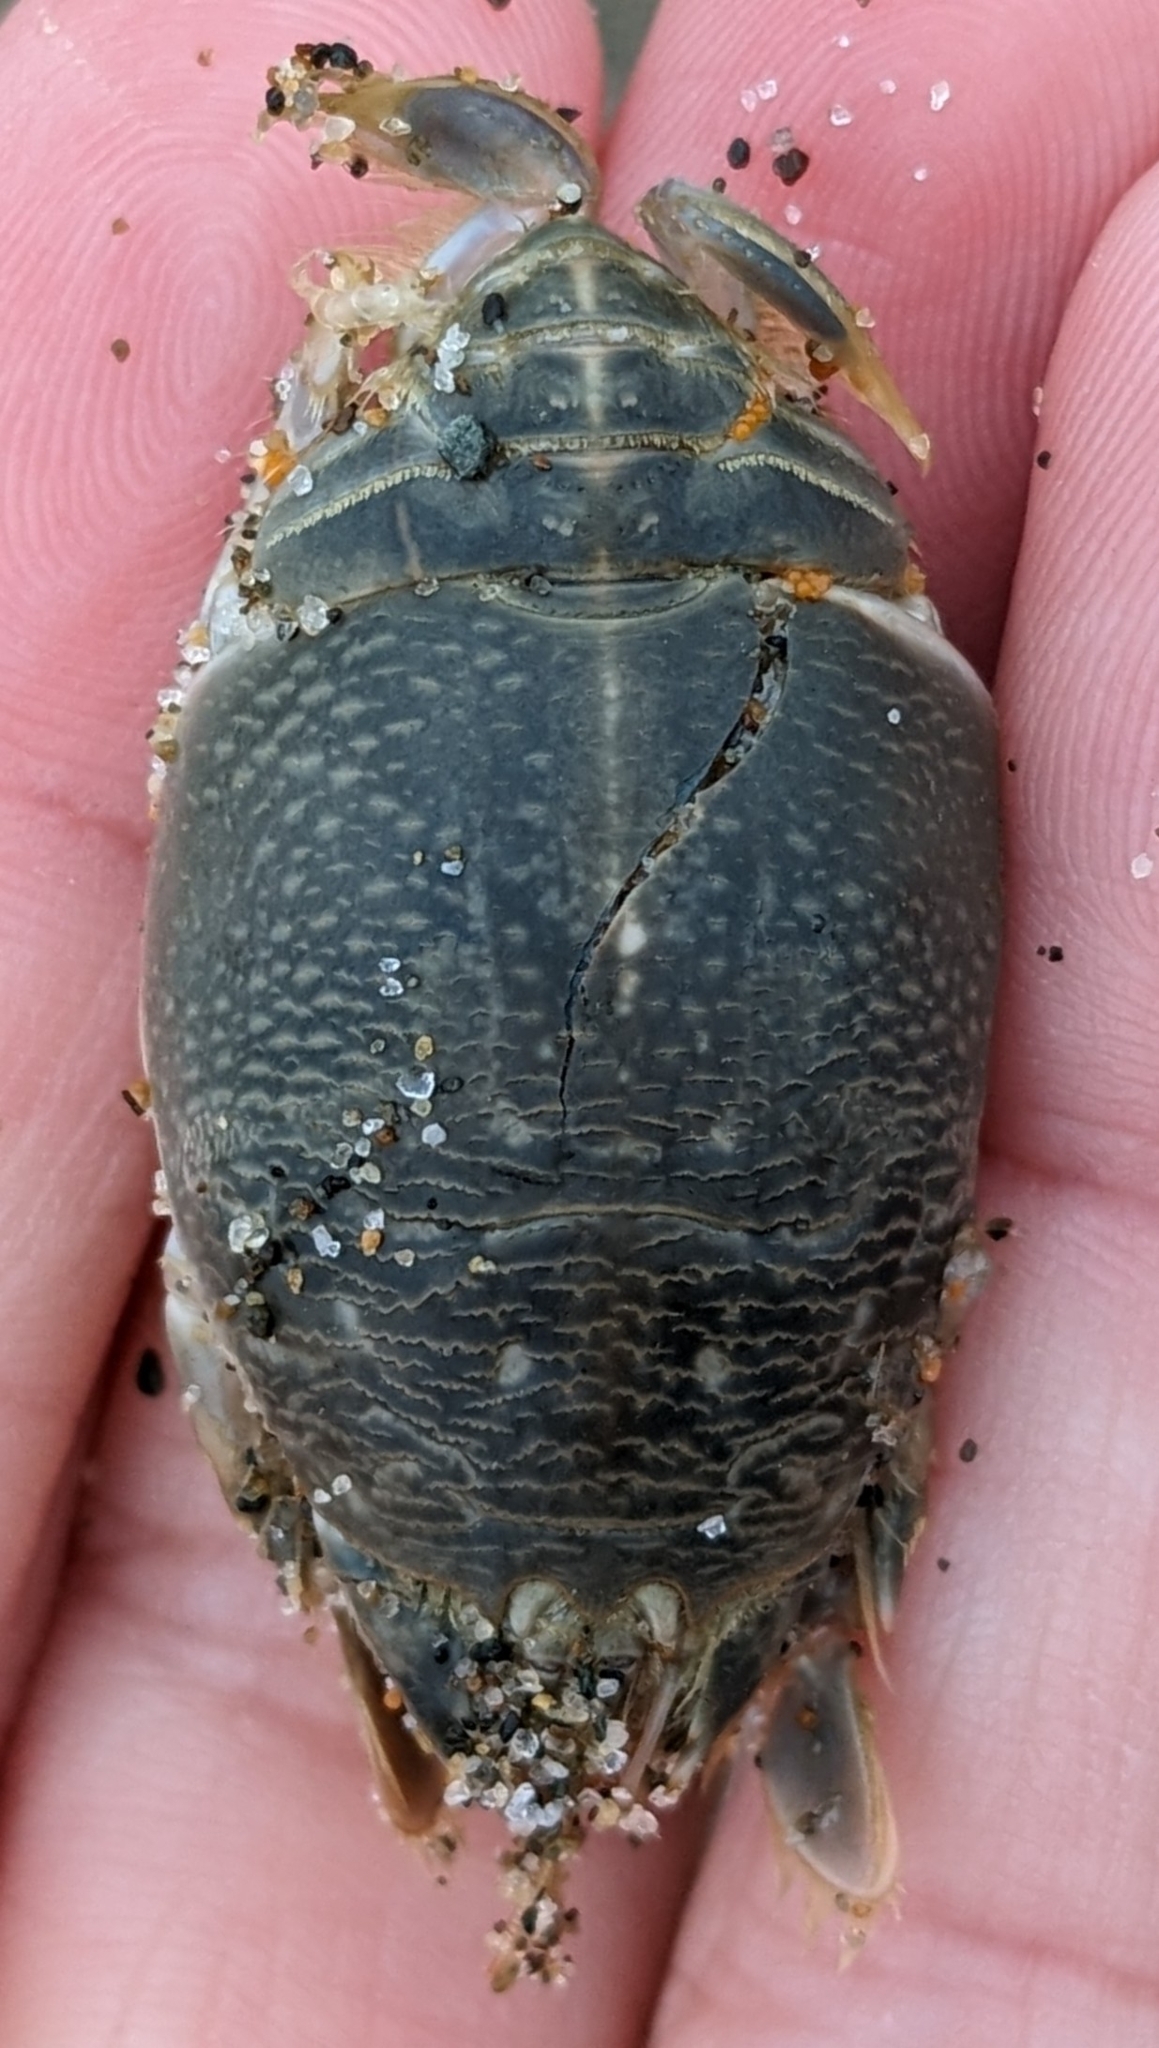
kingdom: Animalia
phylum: Arthropoda
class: Malacostraca
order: Decapoda
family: Hippidae
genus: Emerita
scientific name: Emerita analoga
